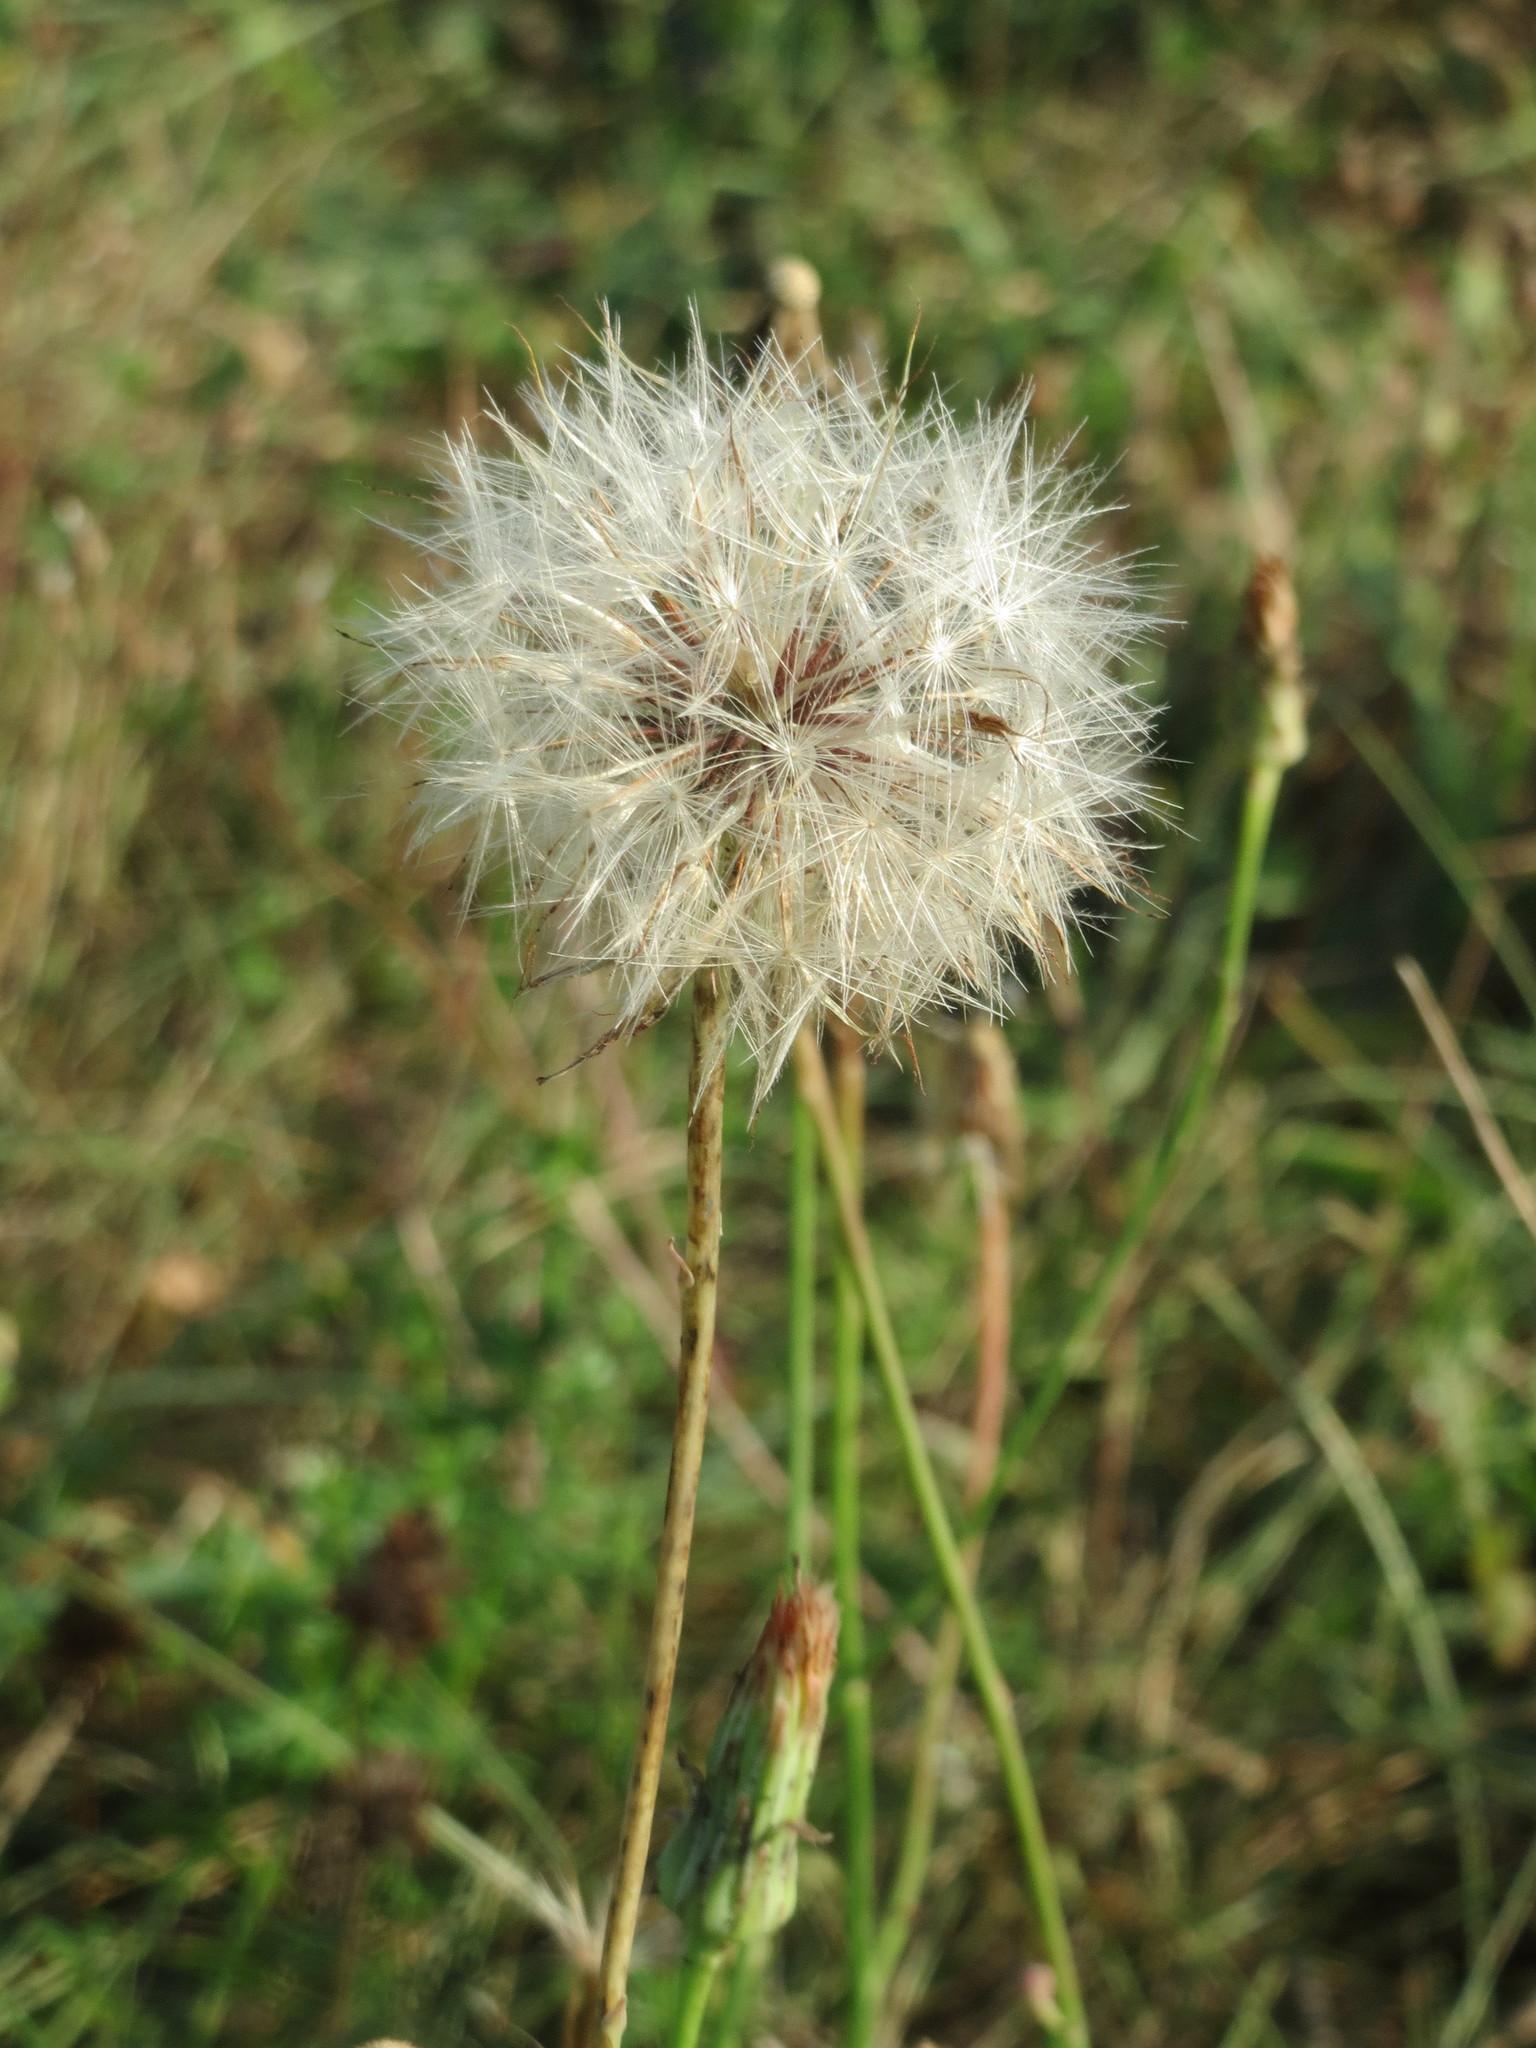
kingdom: Plantae
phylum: Tracheophyta
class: Magnoliopsida
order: Asterales
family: Asteraceae
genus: Hypochaeris
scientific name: Hypochaeris radicata
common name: Flatweed
